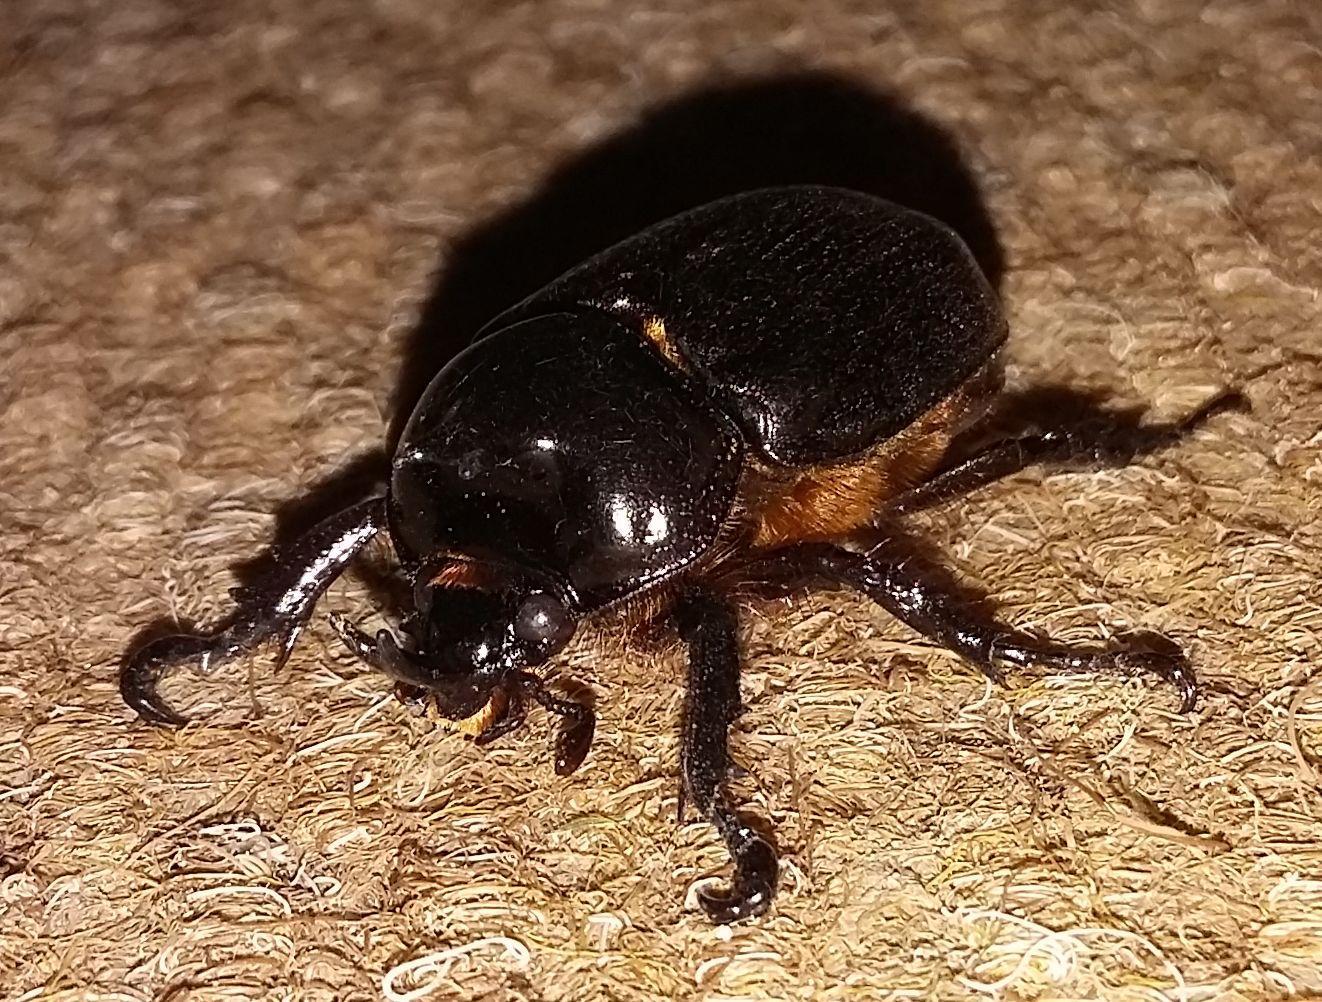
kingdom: Animalia
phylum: Arthropoda
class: Insecta
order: Coleoptera
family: Scarabaeidae
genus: Cyphonistes
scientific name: Cyphonistes vallatus
